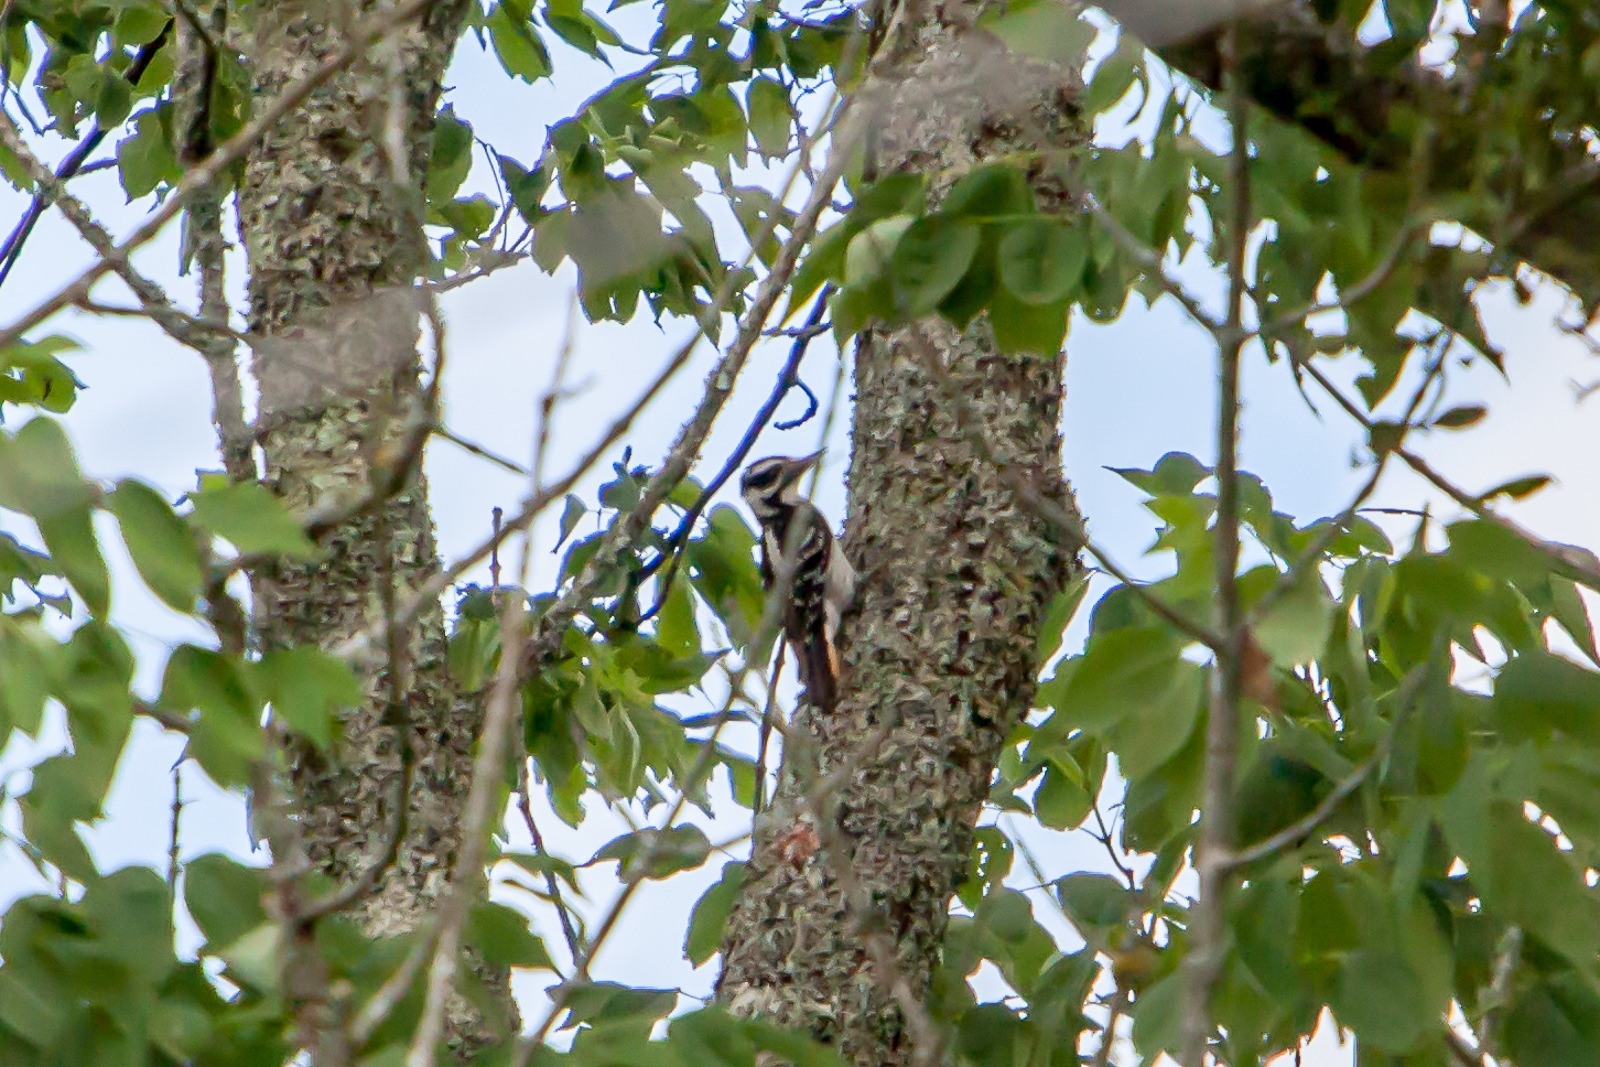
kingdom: Animalia
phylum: Chordata
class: Aves
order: Piciformes
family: Picidae
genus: Leuconotopicus
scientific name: Leuconotopicus villosus
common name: Hairy woodpecker
